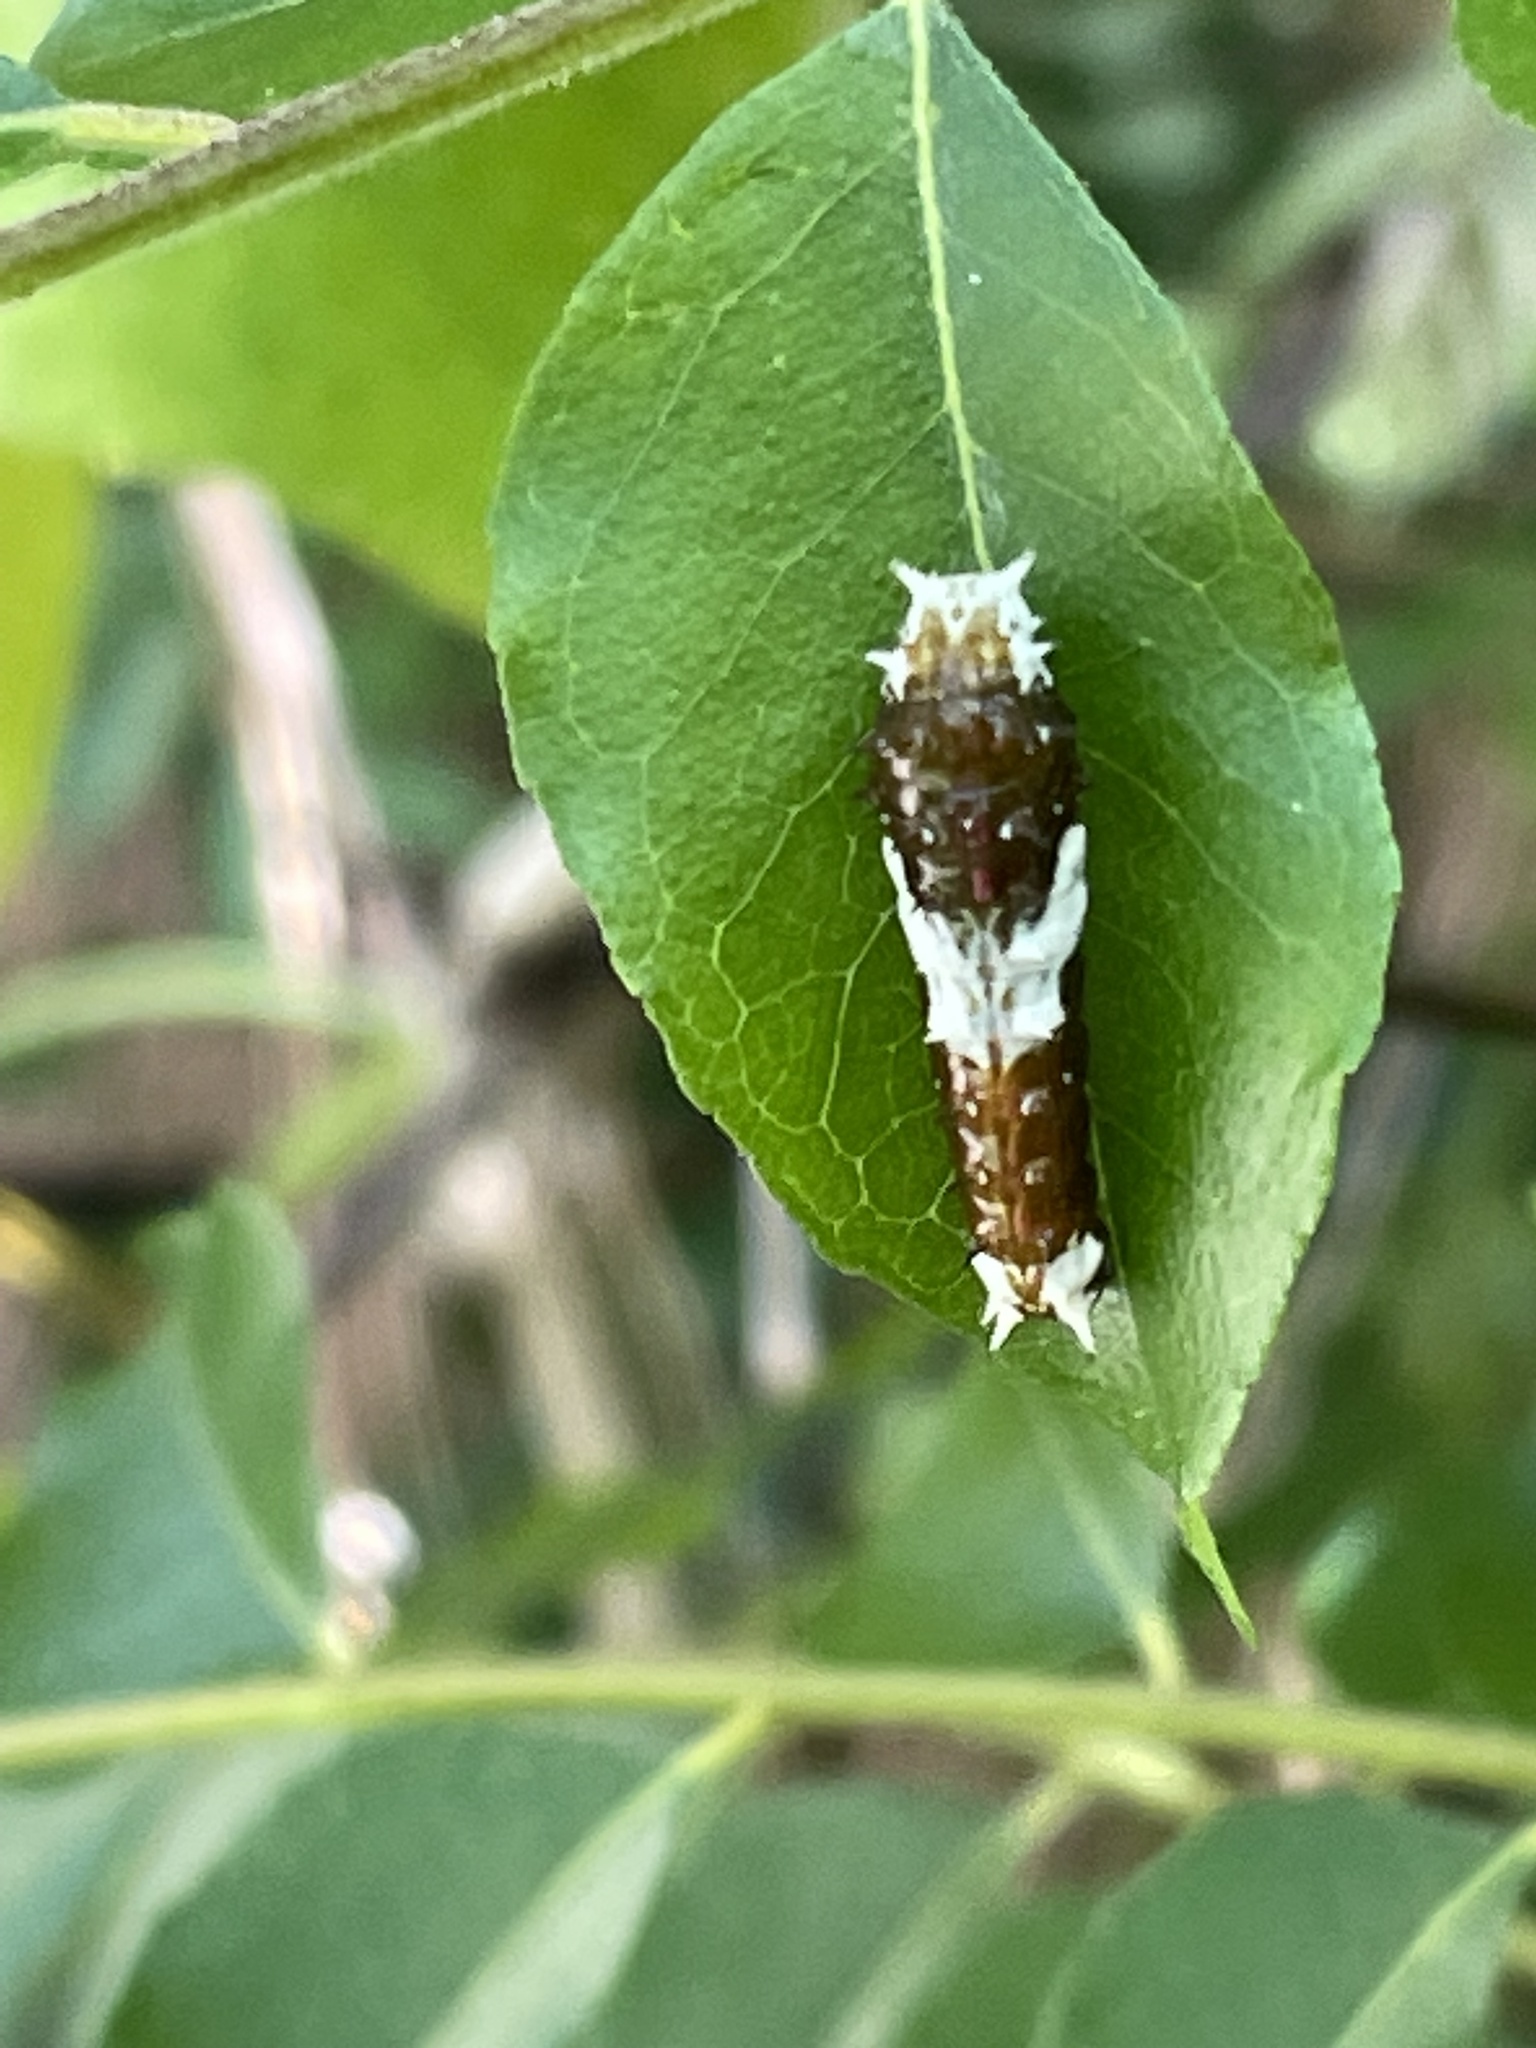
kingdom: Animalia
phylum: Arthropoda
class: Insecta
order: Lepidoptera
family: Papilionidae
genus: Papilio
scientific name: Papilio aegeus
